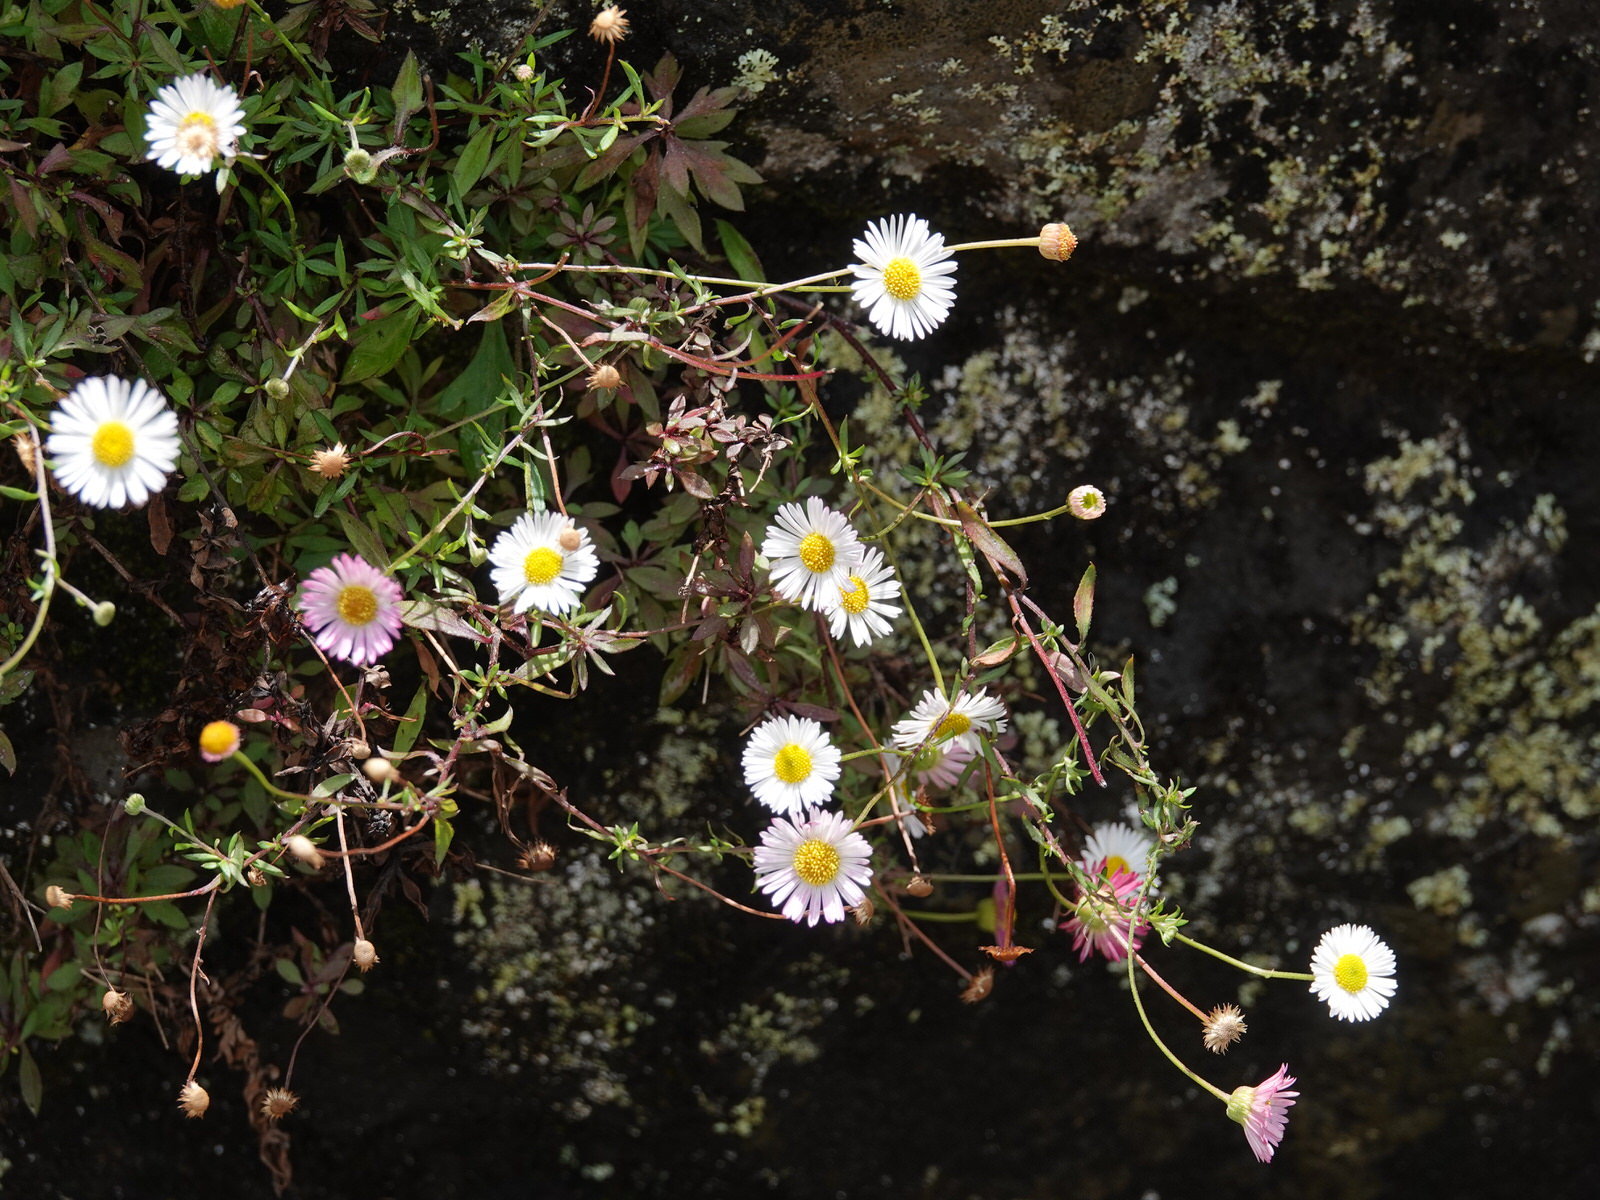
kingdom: Plantae
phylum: Tracheophyta
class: Magnoliopsida
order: Asterales
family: Asteraceae
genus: Erigeron
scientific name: Erigeron karvinskianus
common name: Mexican fleabane
